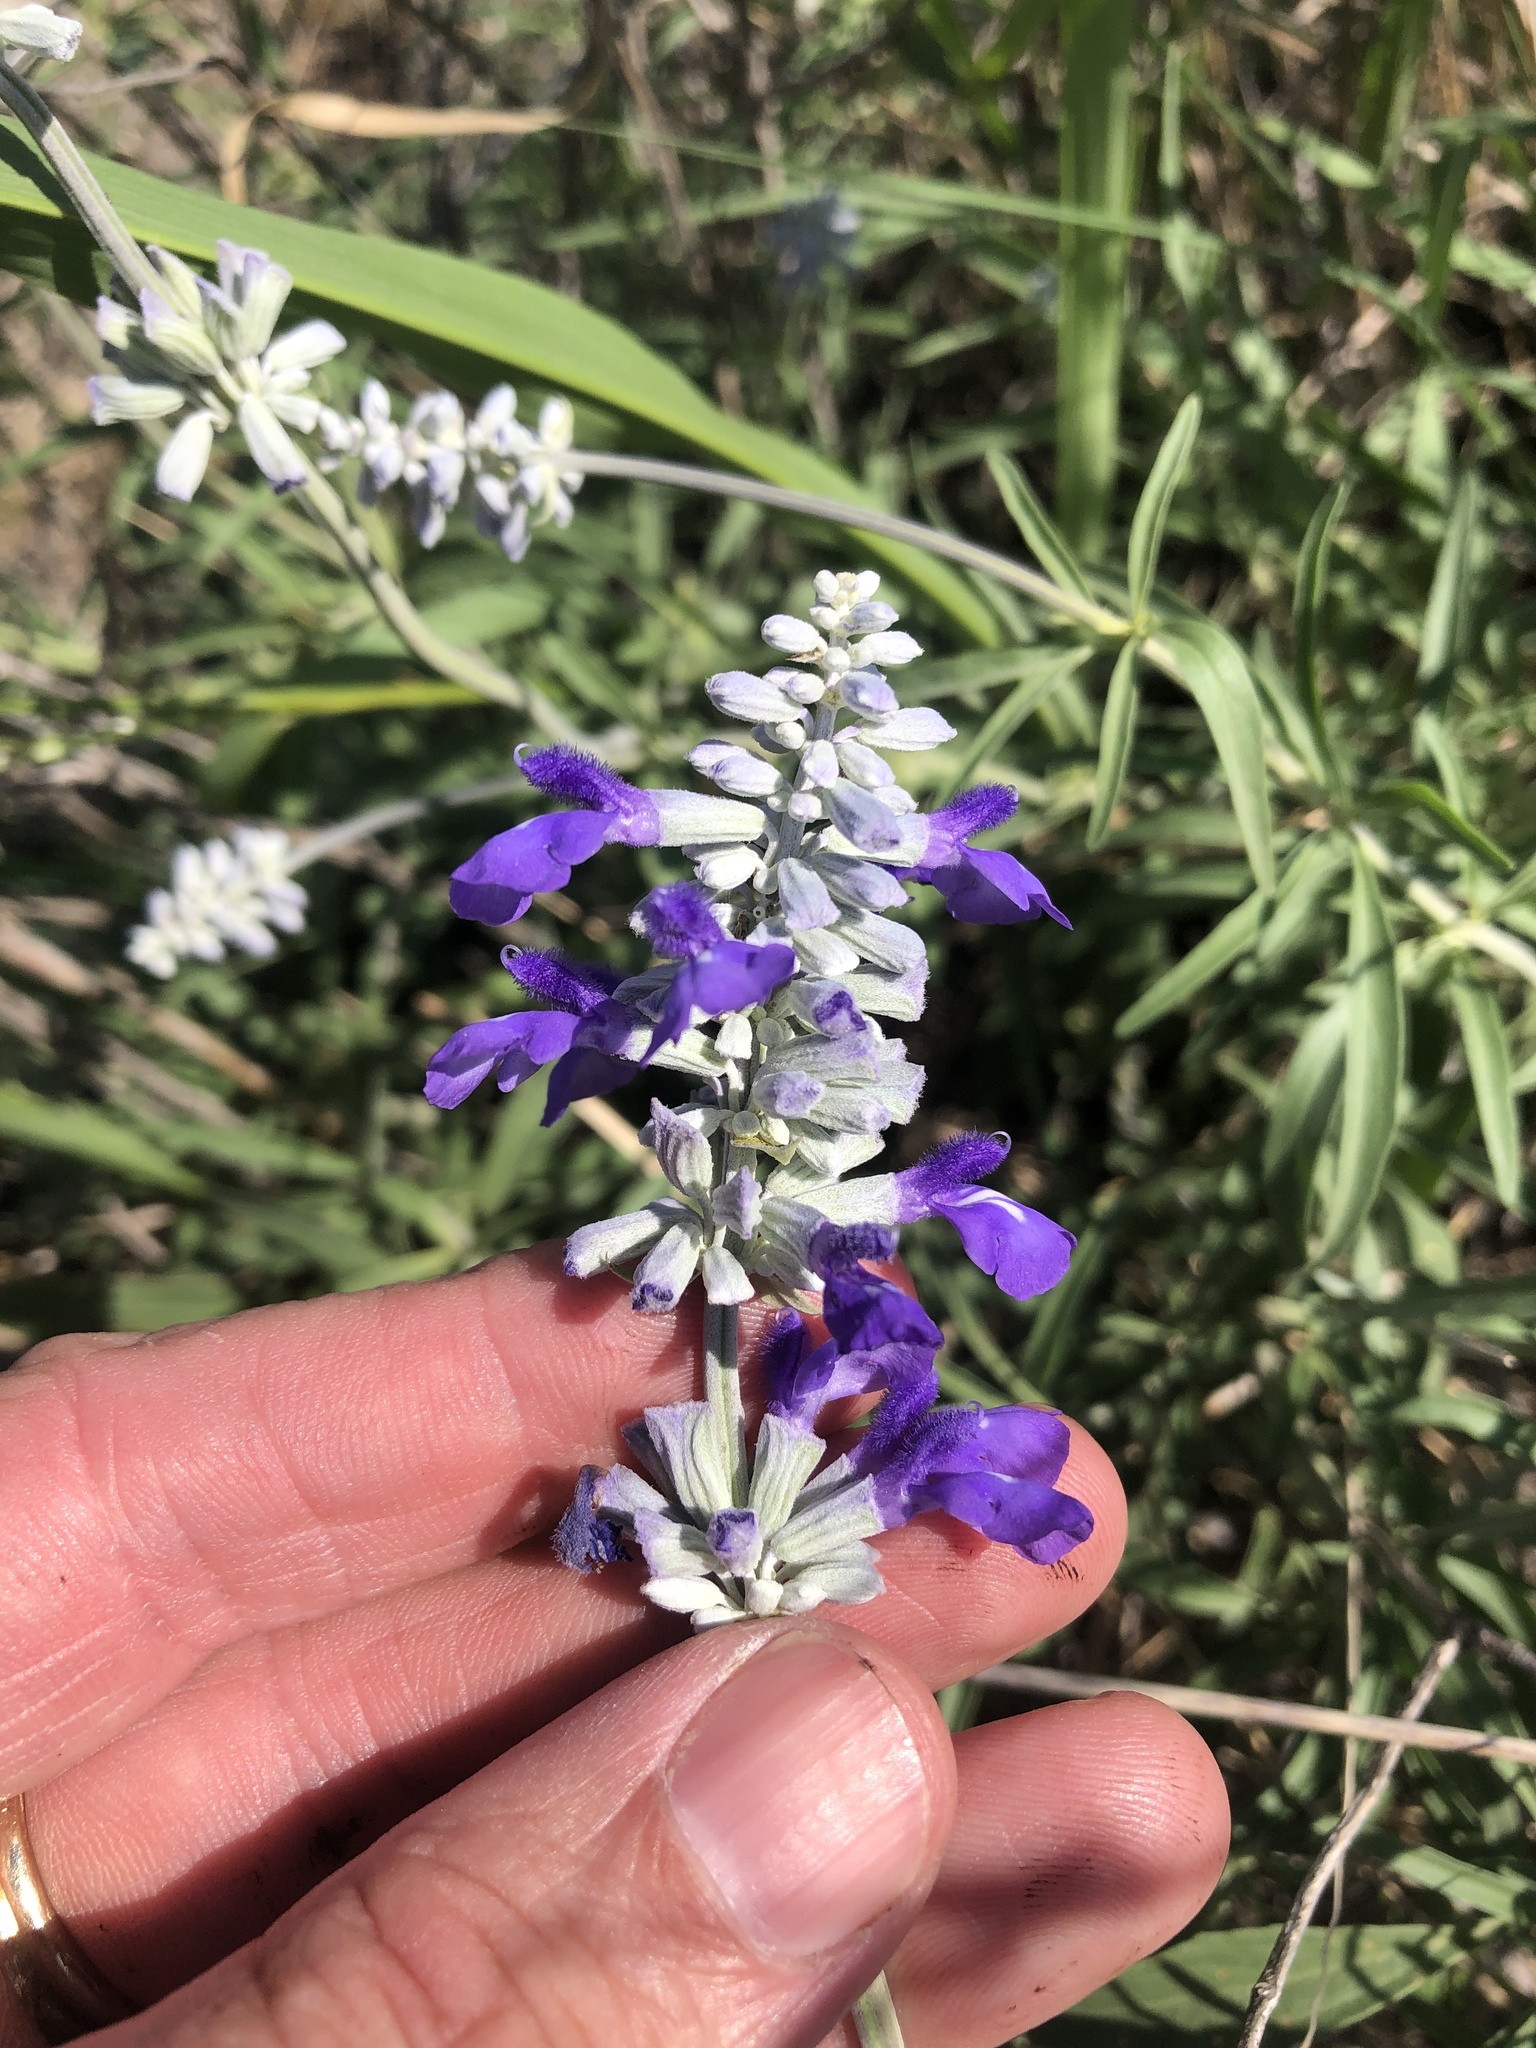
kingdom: Plantae
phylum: Tracheophyta
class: Magnoliopsida
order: Lamiales
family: Lamiaceae
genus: Salvia
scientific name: Salvia farinacea
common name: Mealy sage
